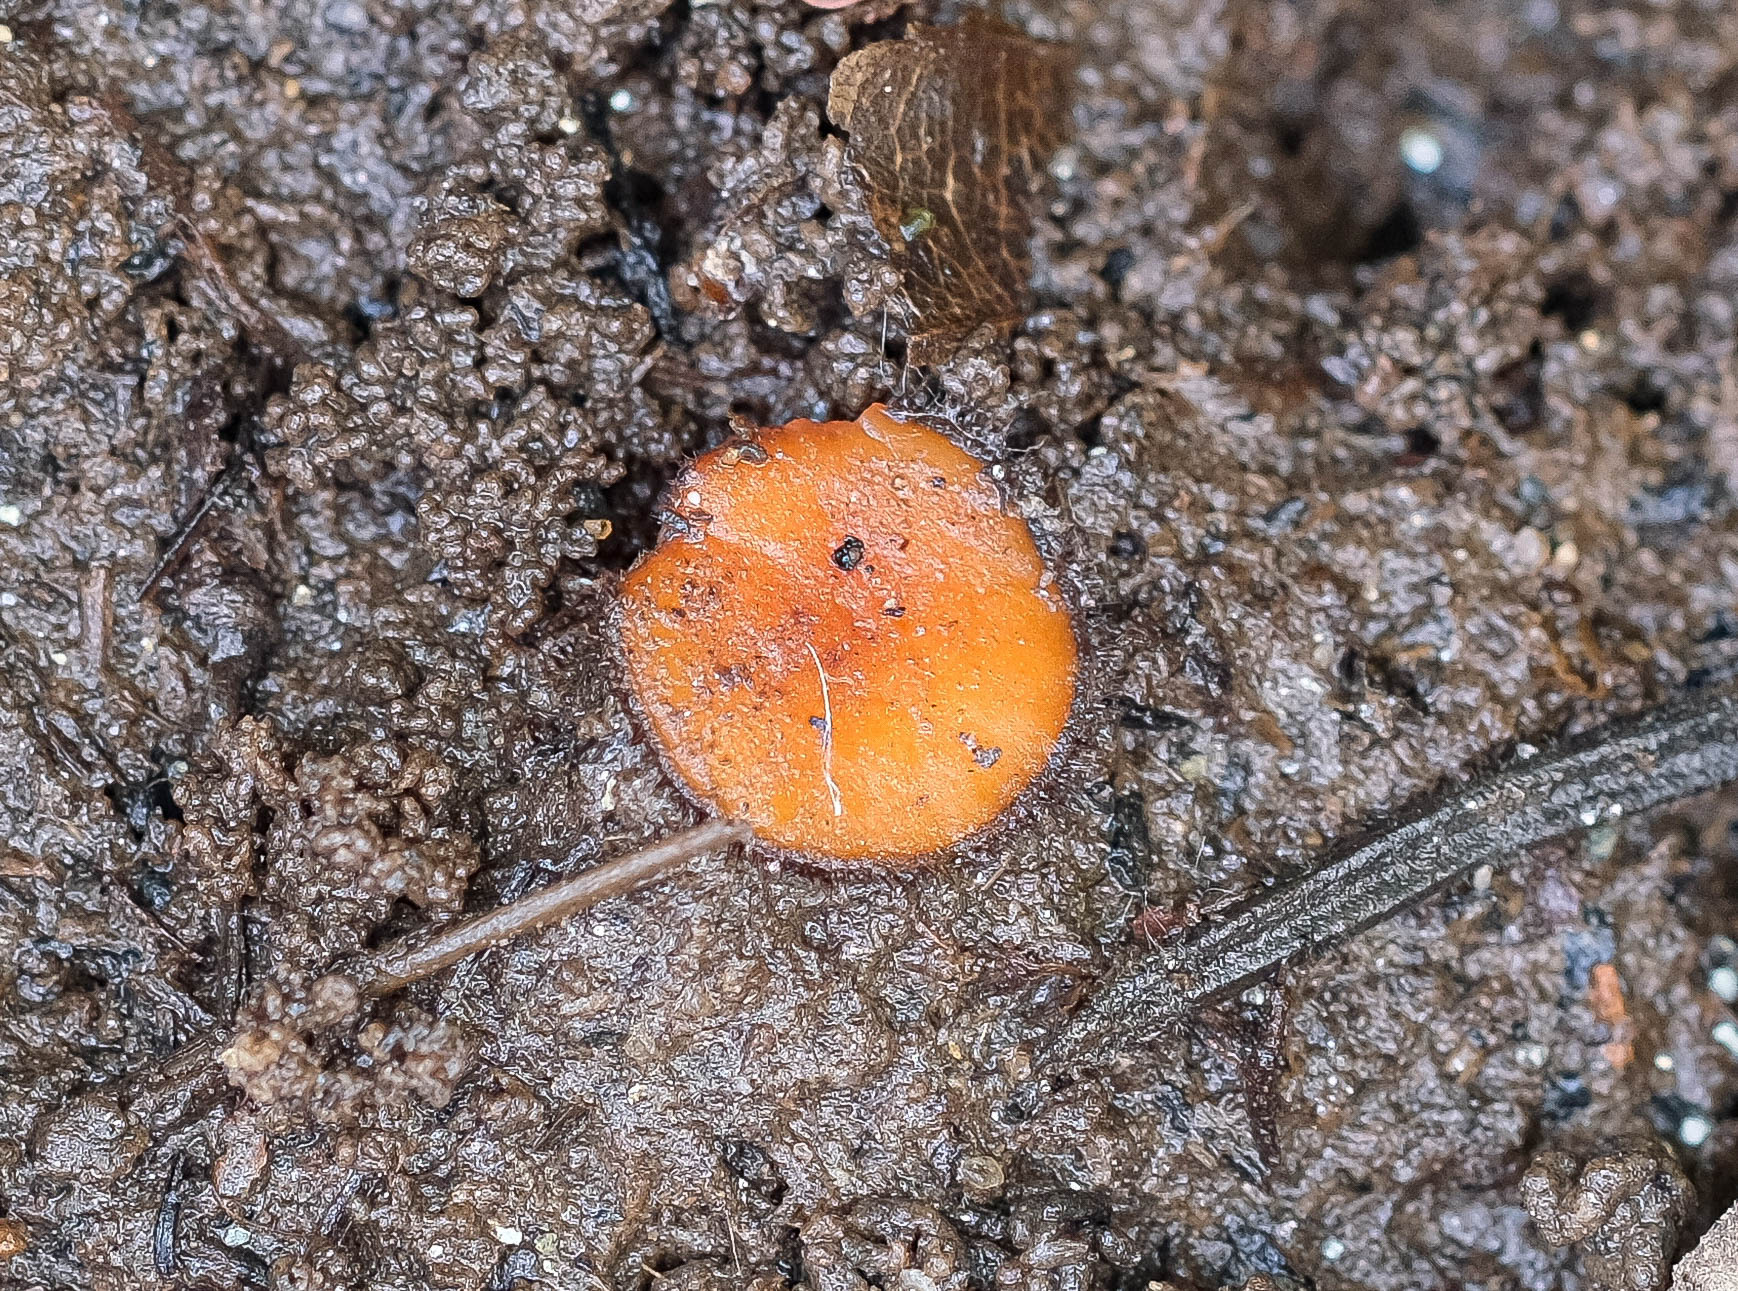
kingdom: Fungi
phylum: Ascomycota
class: Pezizomycetes
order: Pezizales
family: Pyronemataceae
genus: Scutellinia
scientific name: Scutellinia subhirtella
